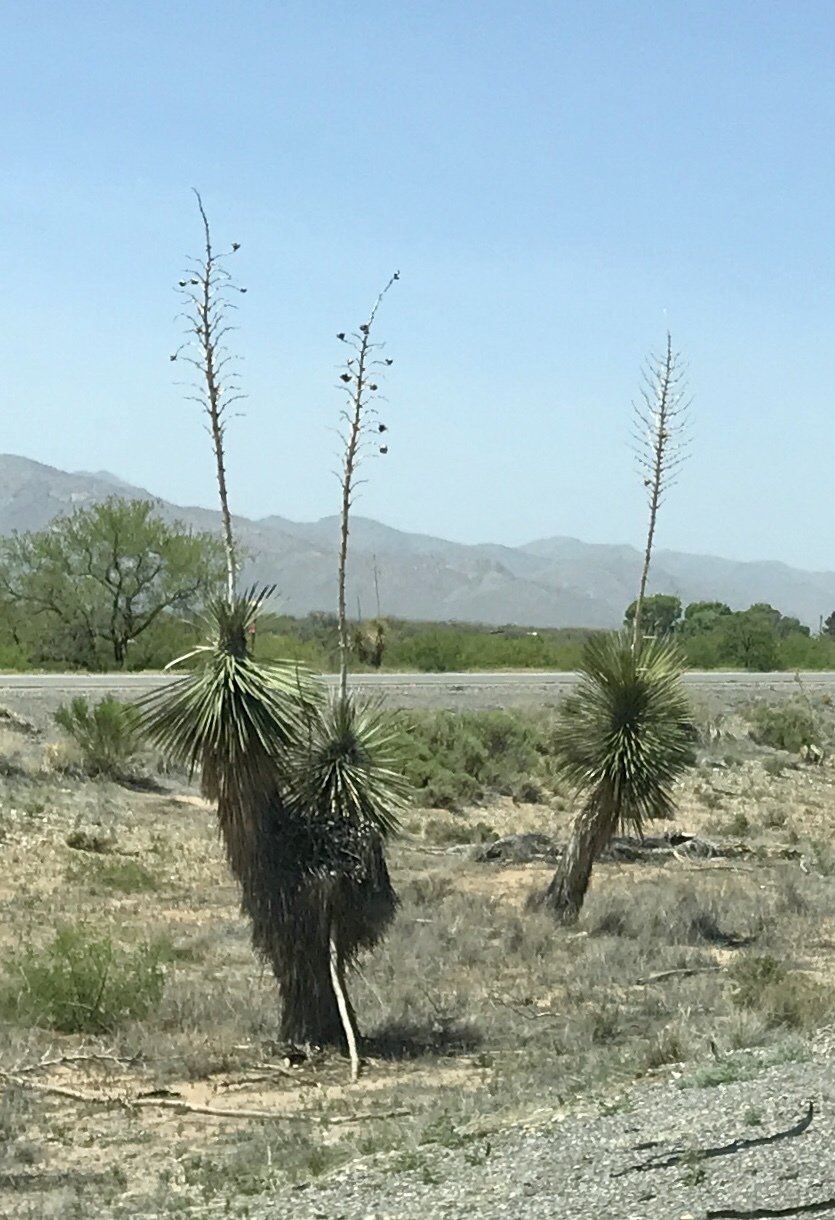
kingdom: Plantae
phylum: Tracheophyta
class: Liliopsida
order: Asparagales
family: Asparagaceae
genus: Yucca
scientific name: Yucca elata
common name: Palmella
